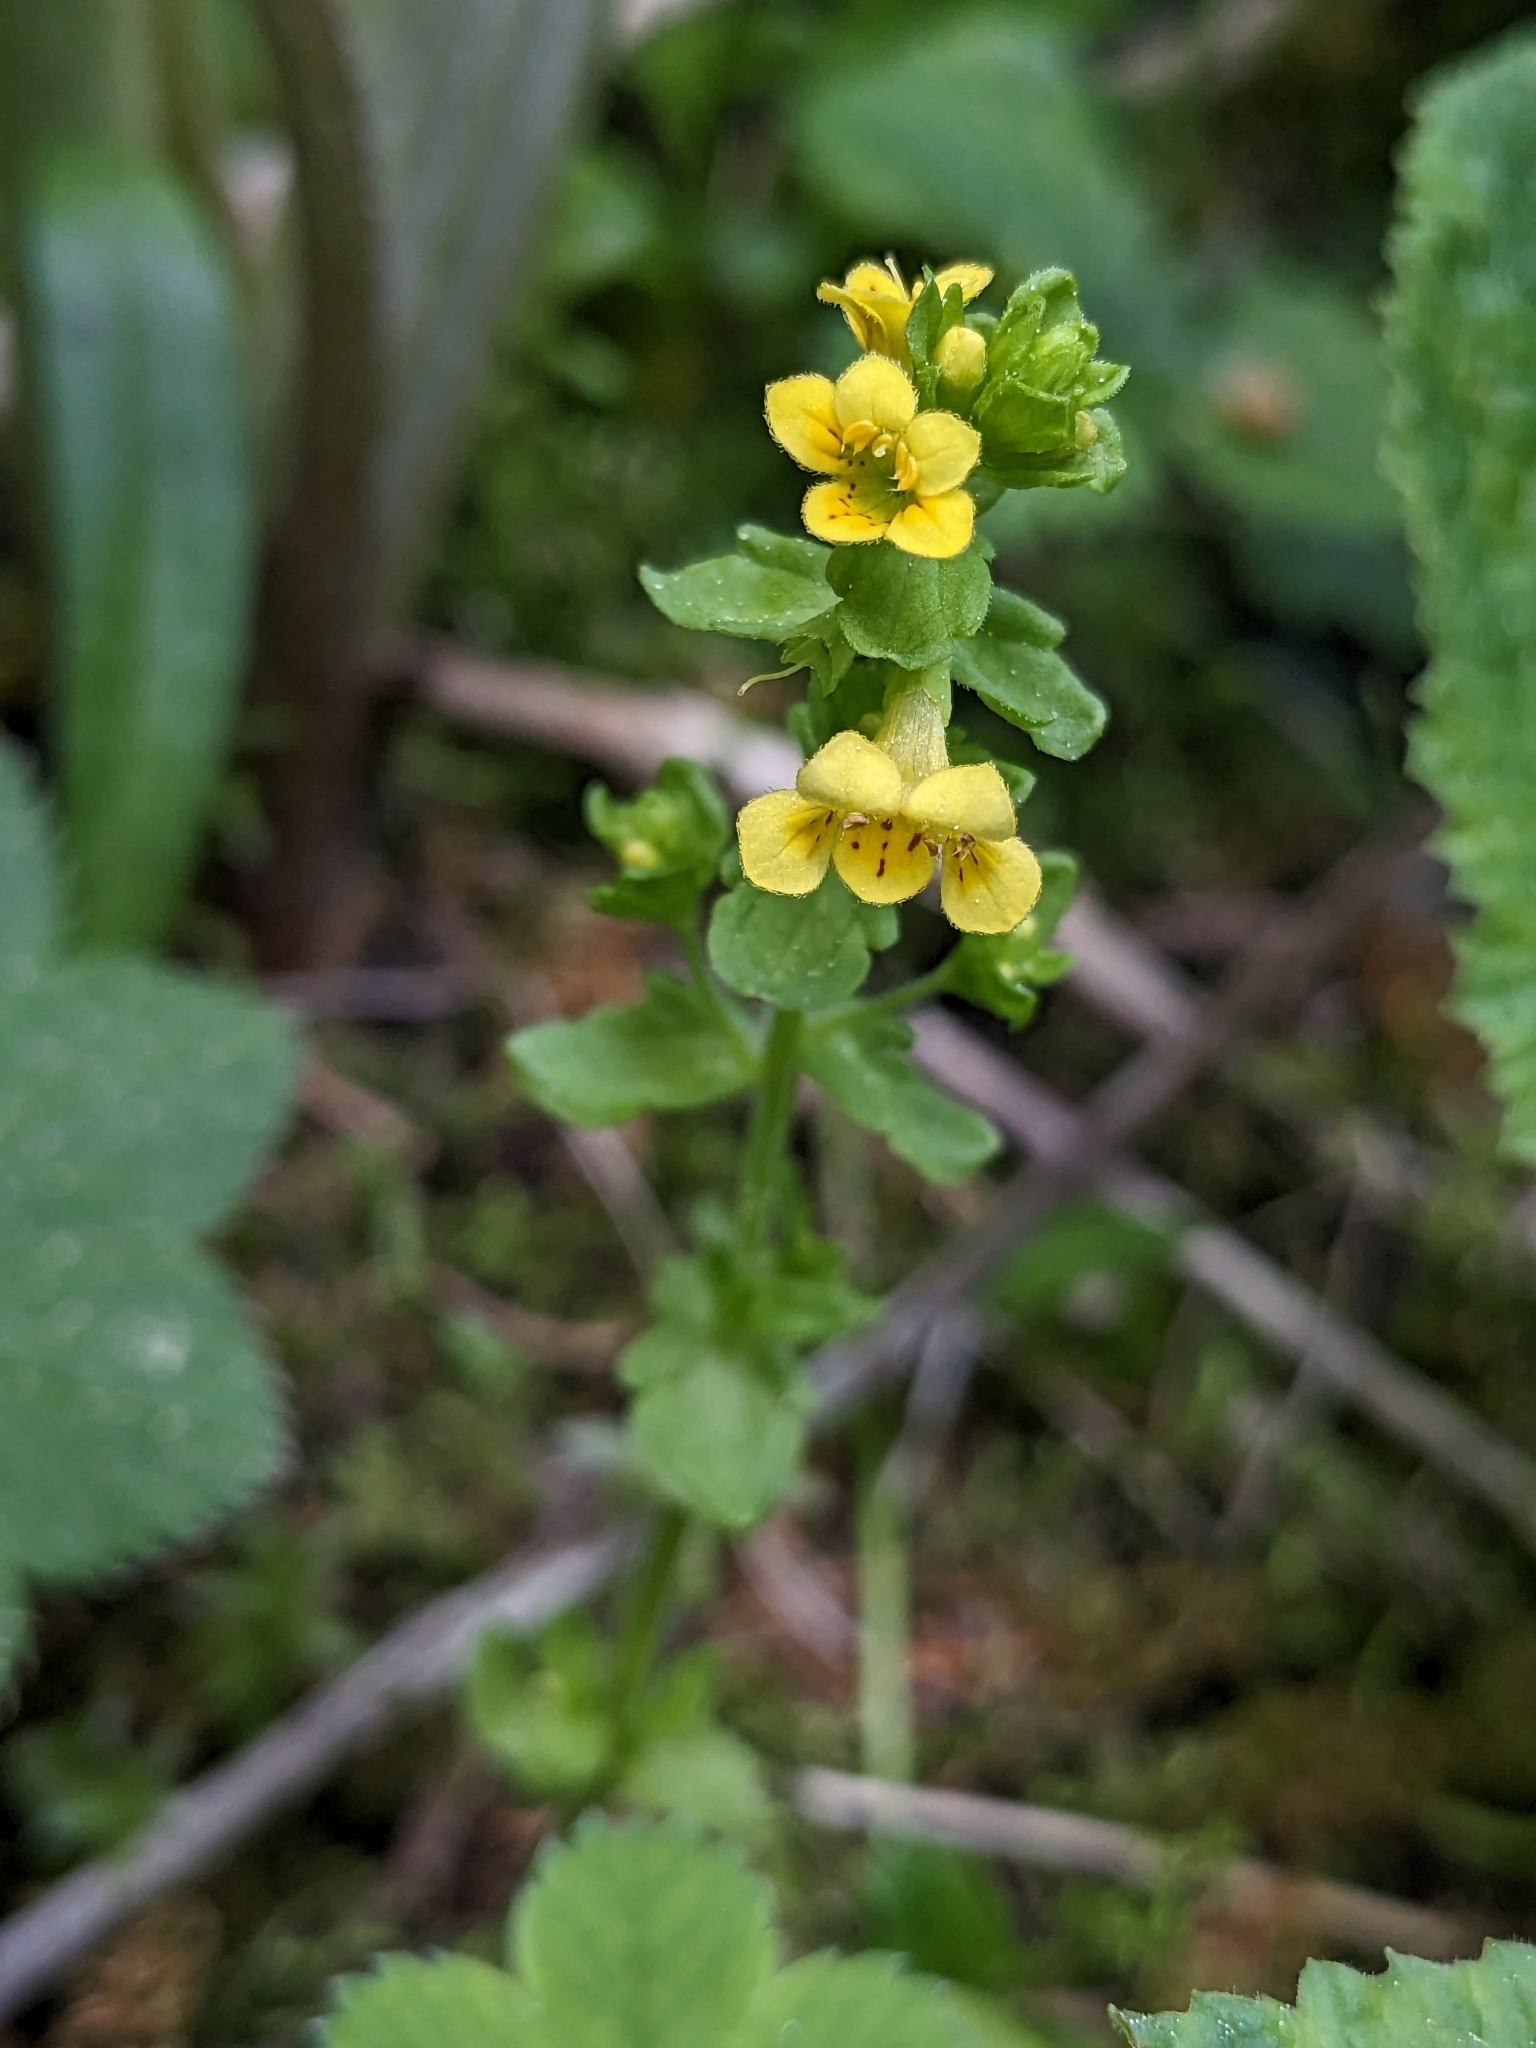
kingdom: Plantae
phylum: Tracheophyta
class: Magnoliopsida
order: Lamiales
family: Orobanchaceae
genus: Tozzia
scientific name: Tozzia alpina
